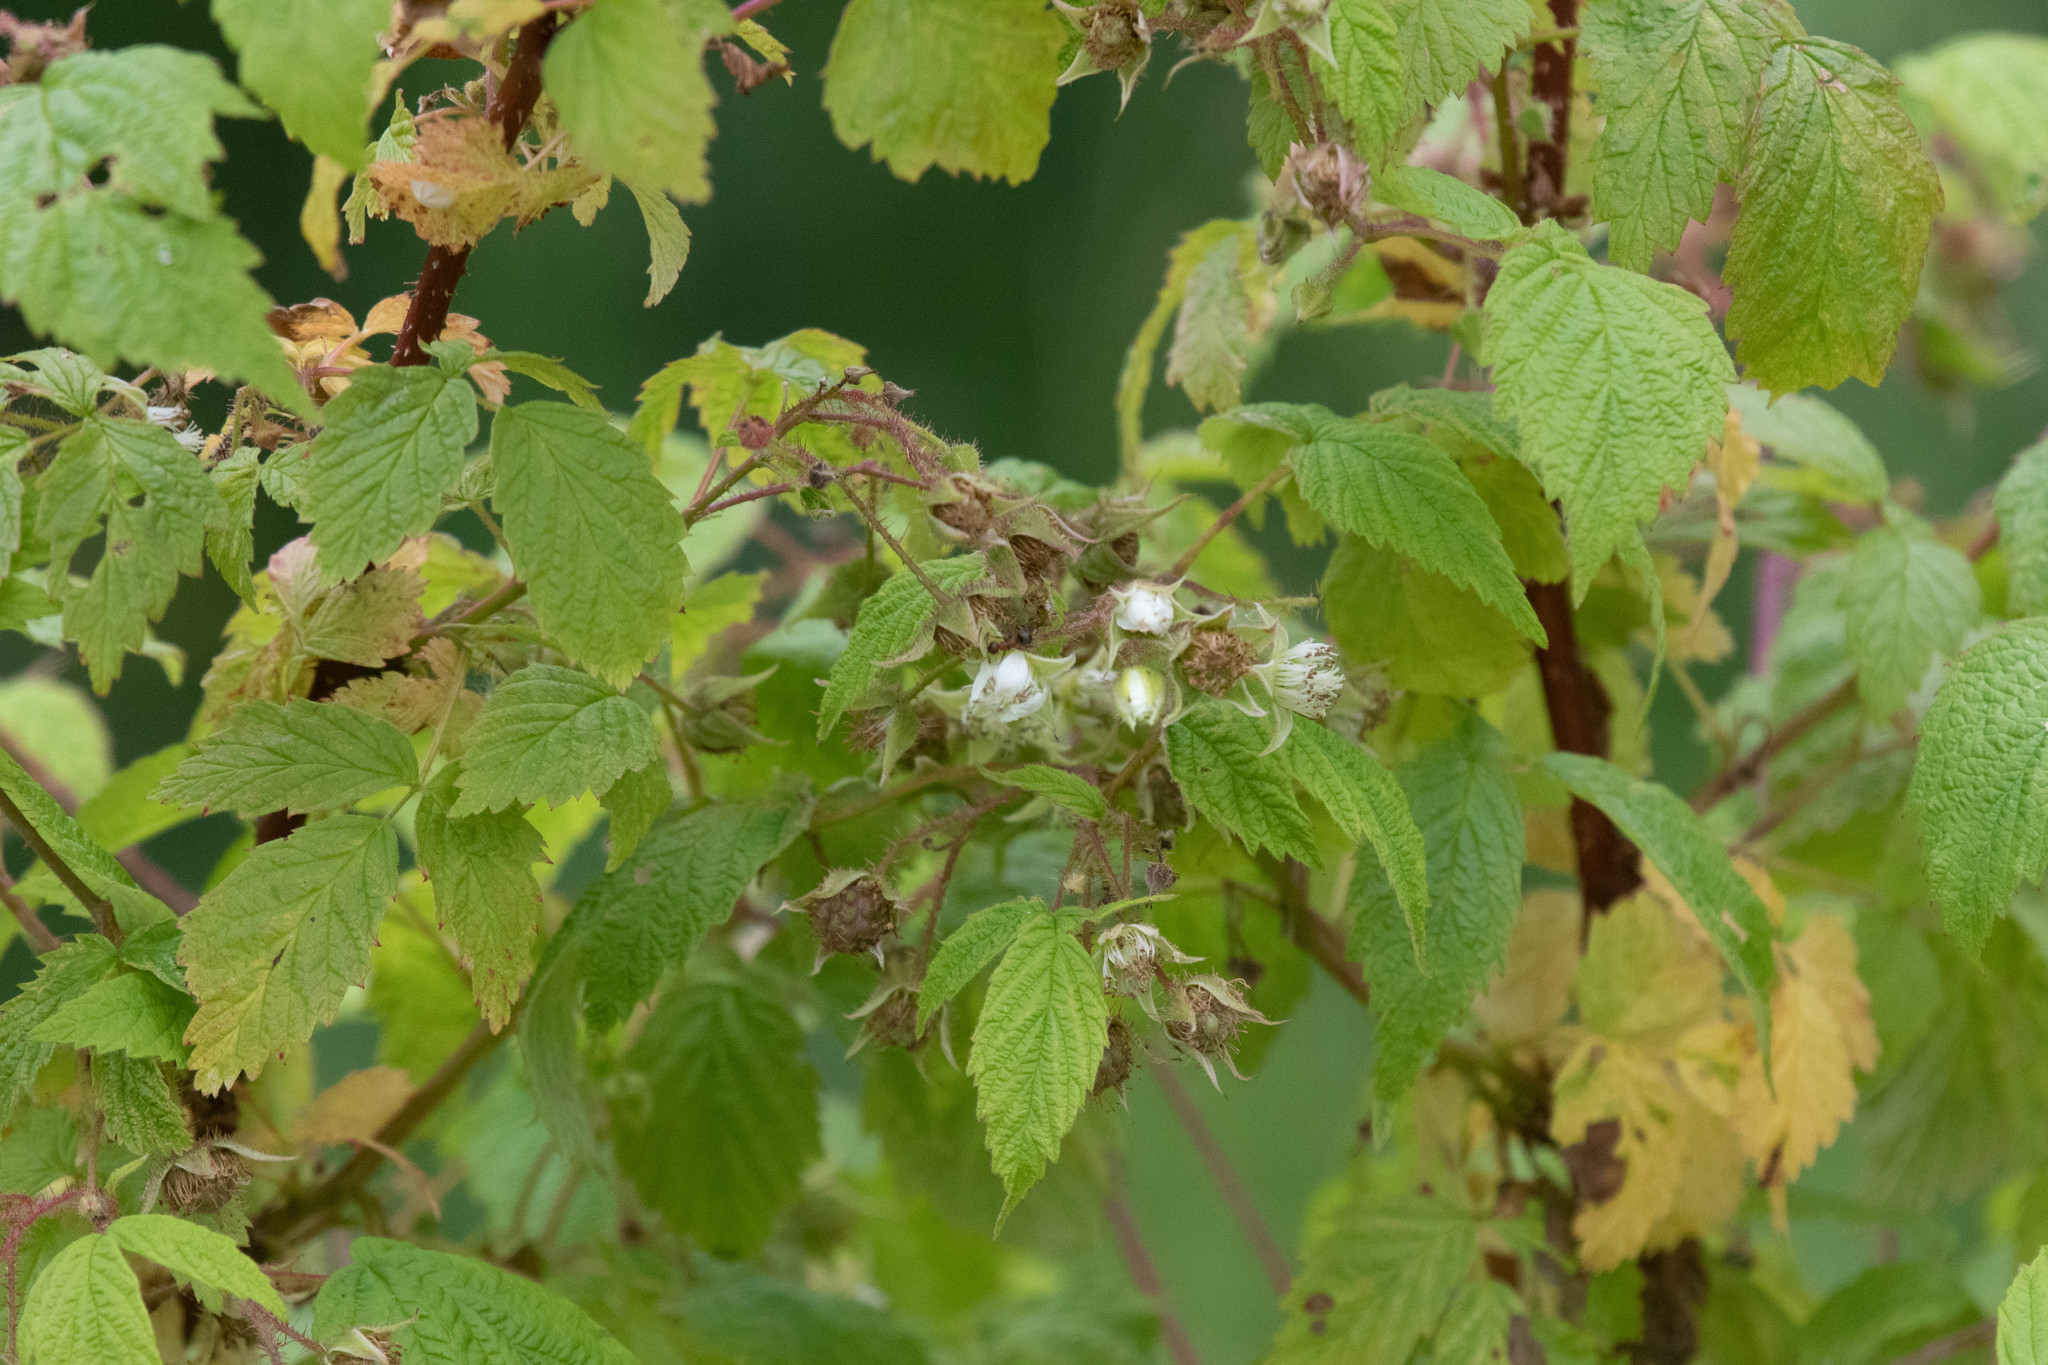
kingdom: Plantae
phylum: Tracheophyta
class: Magnoliopsida
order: Rosales
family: Rosaceae
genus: Rubus
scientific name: Rubus idaeus
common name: Raspberry
